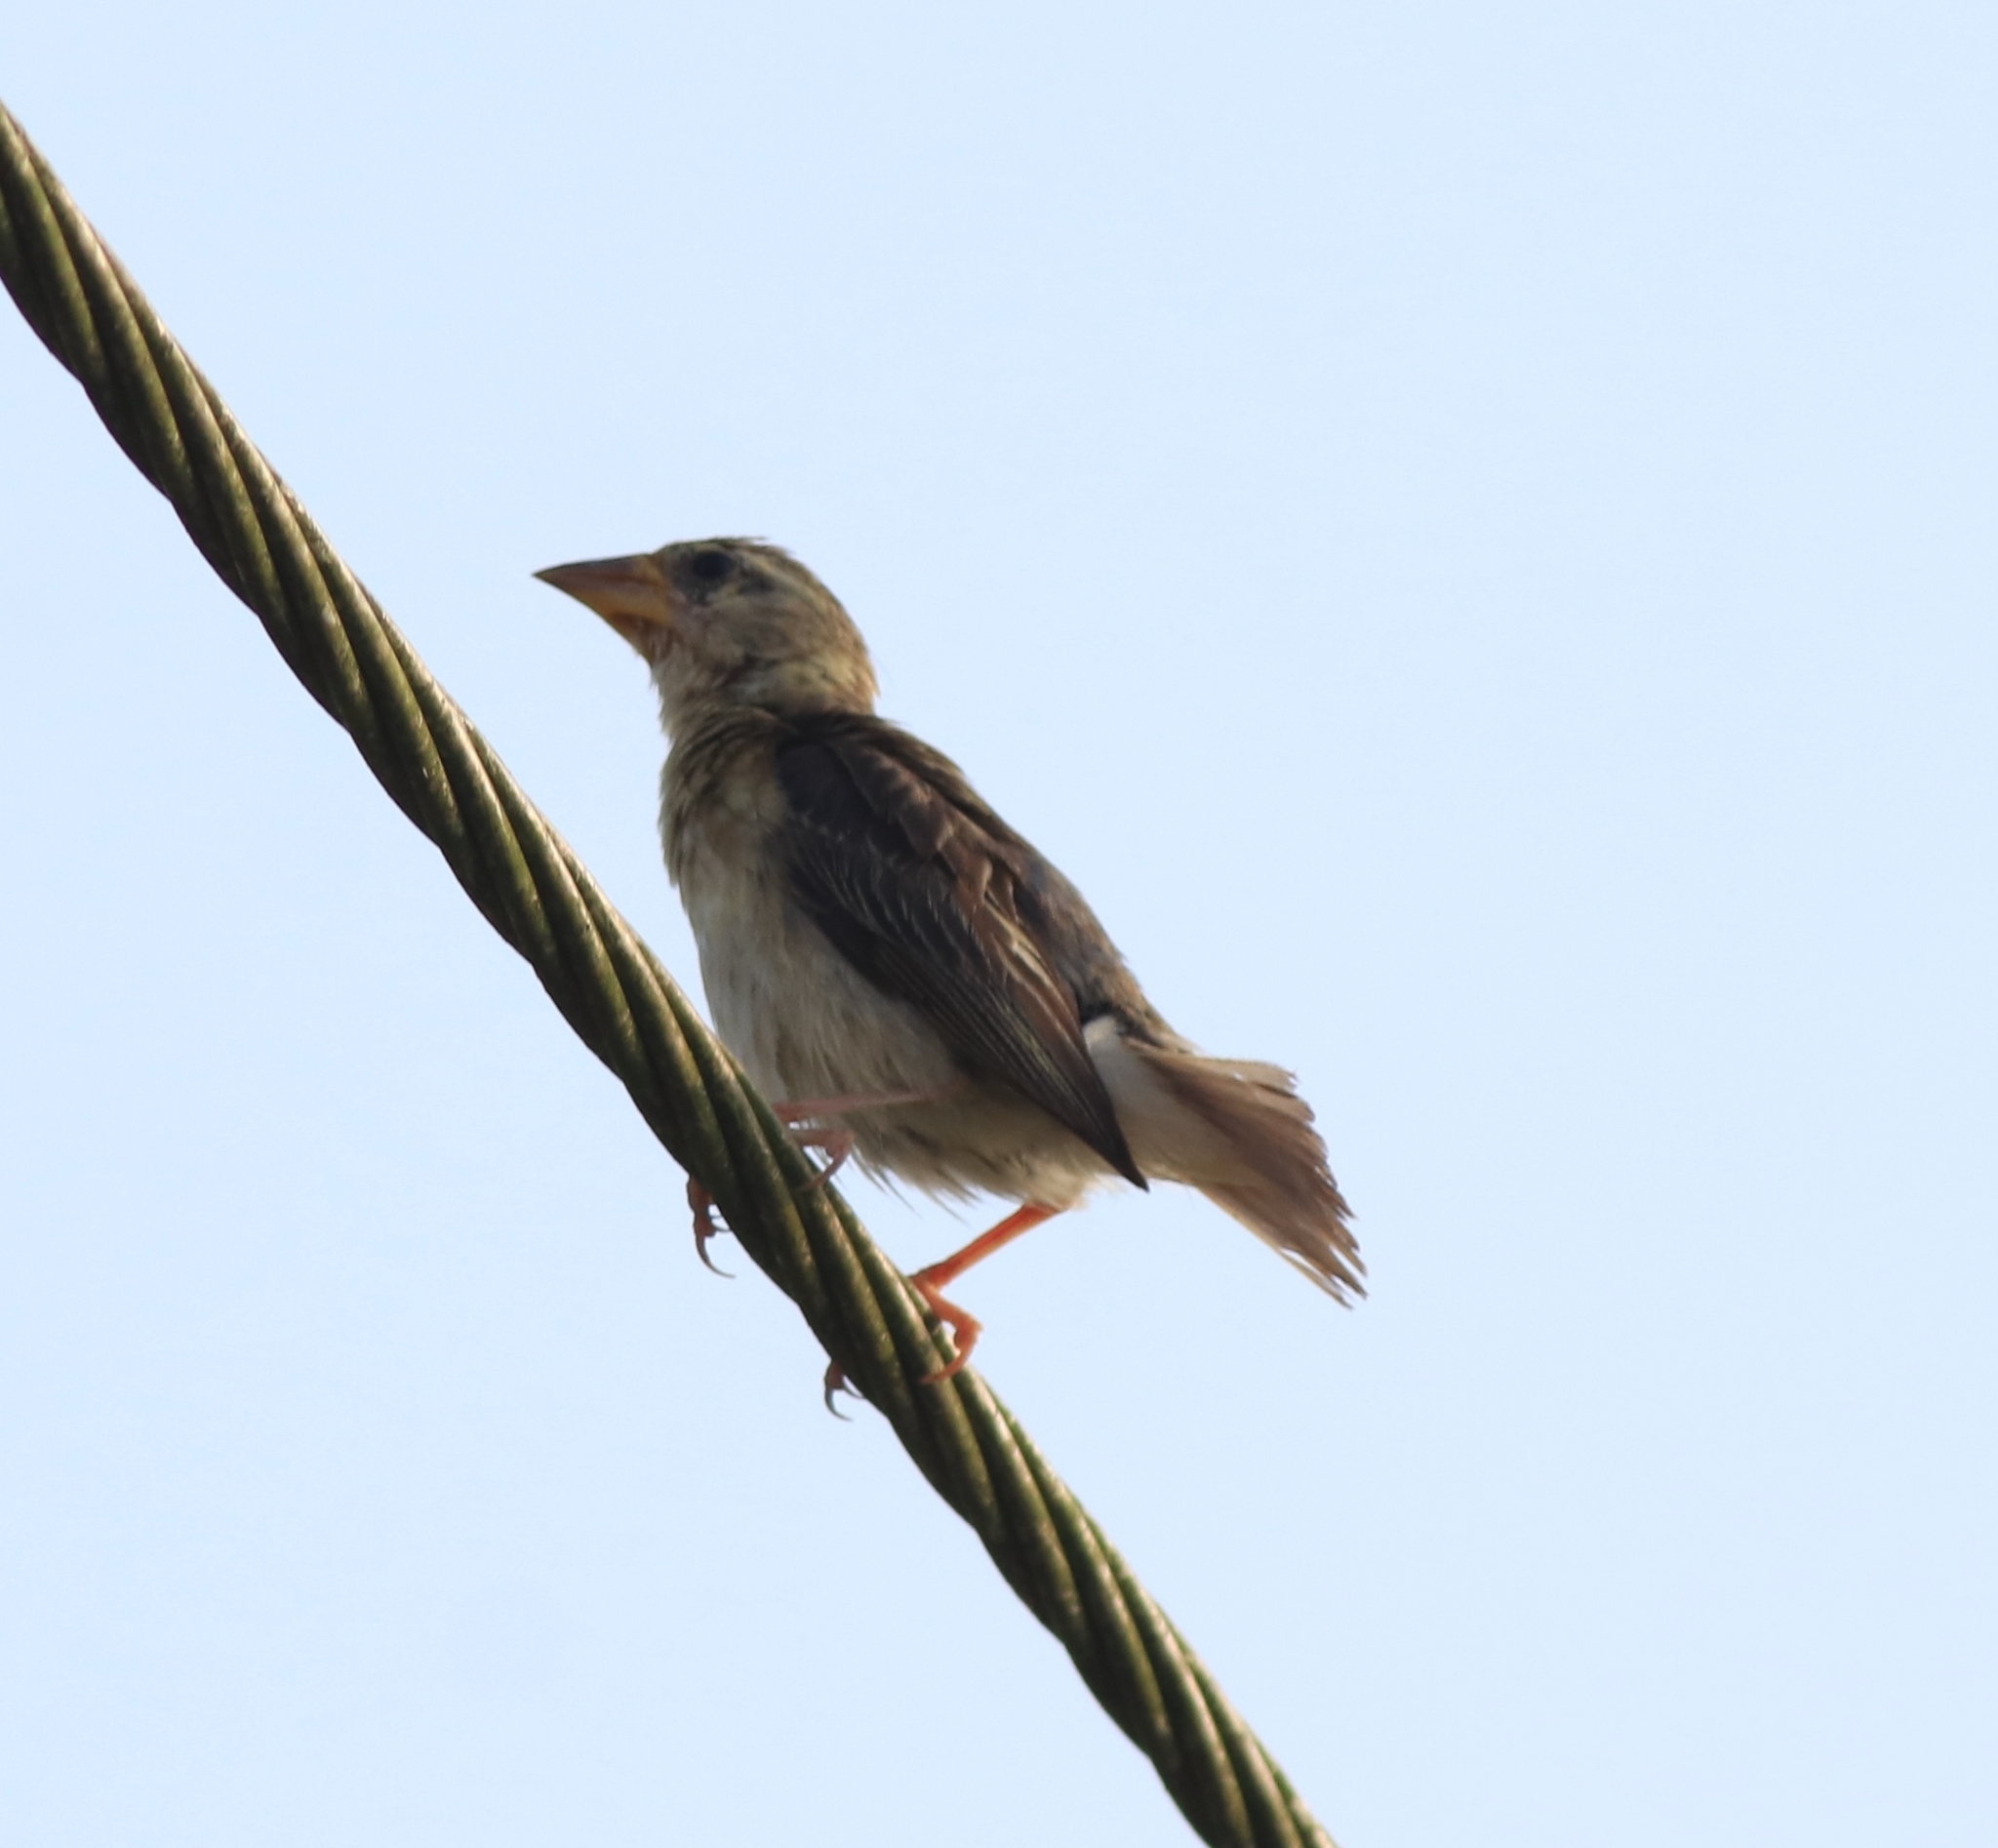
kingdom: Animalia
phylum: Chordata
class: Aves
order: Passeriformes
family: Ploceidae
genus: Ploceus
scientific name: Ploceus philippinus
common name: Baya weaver
